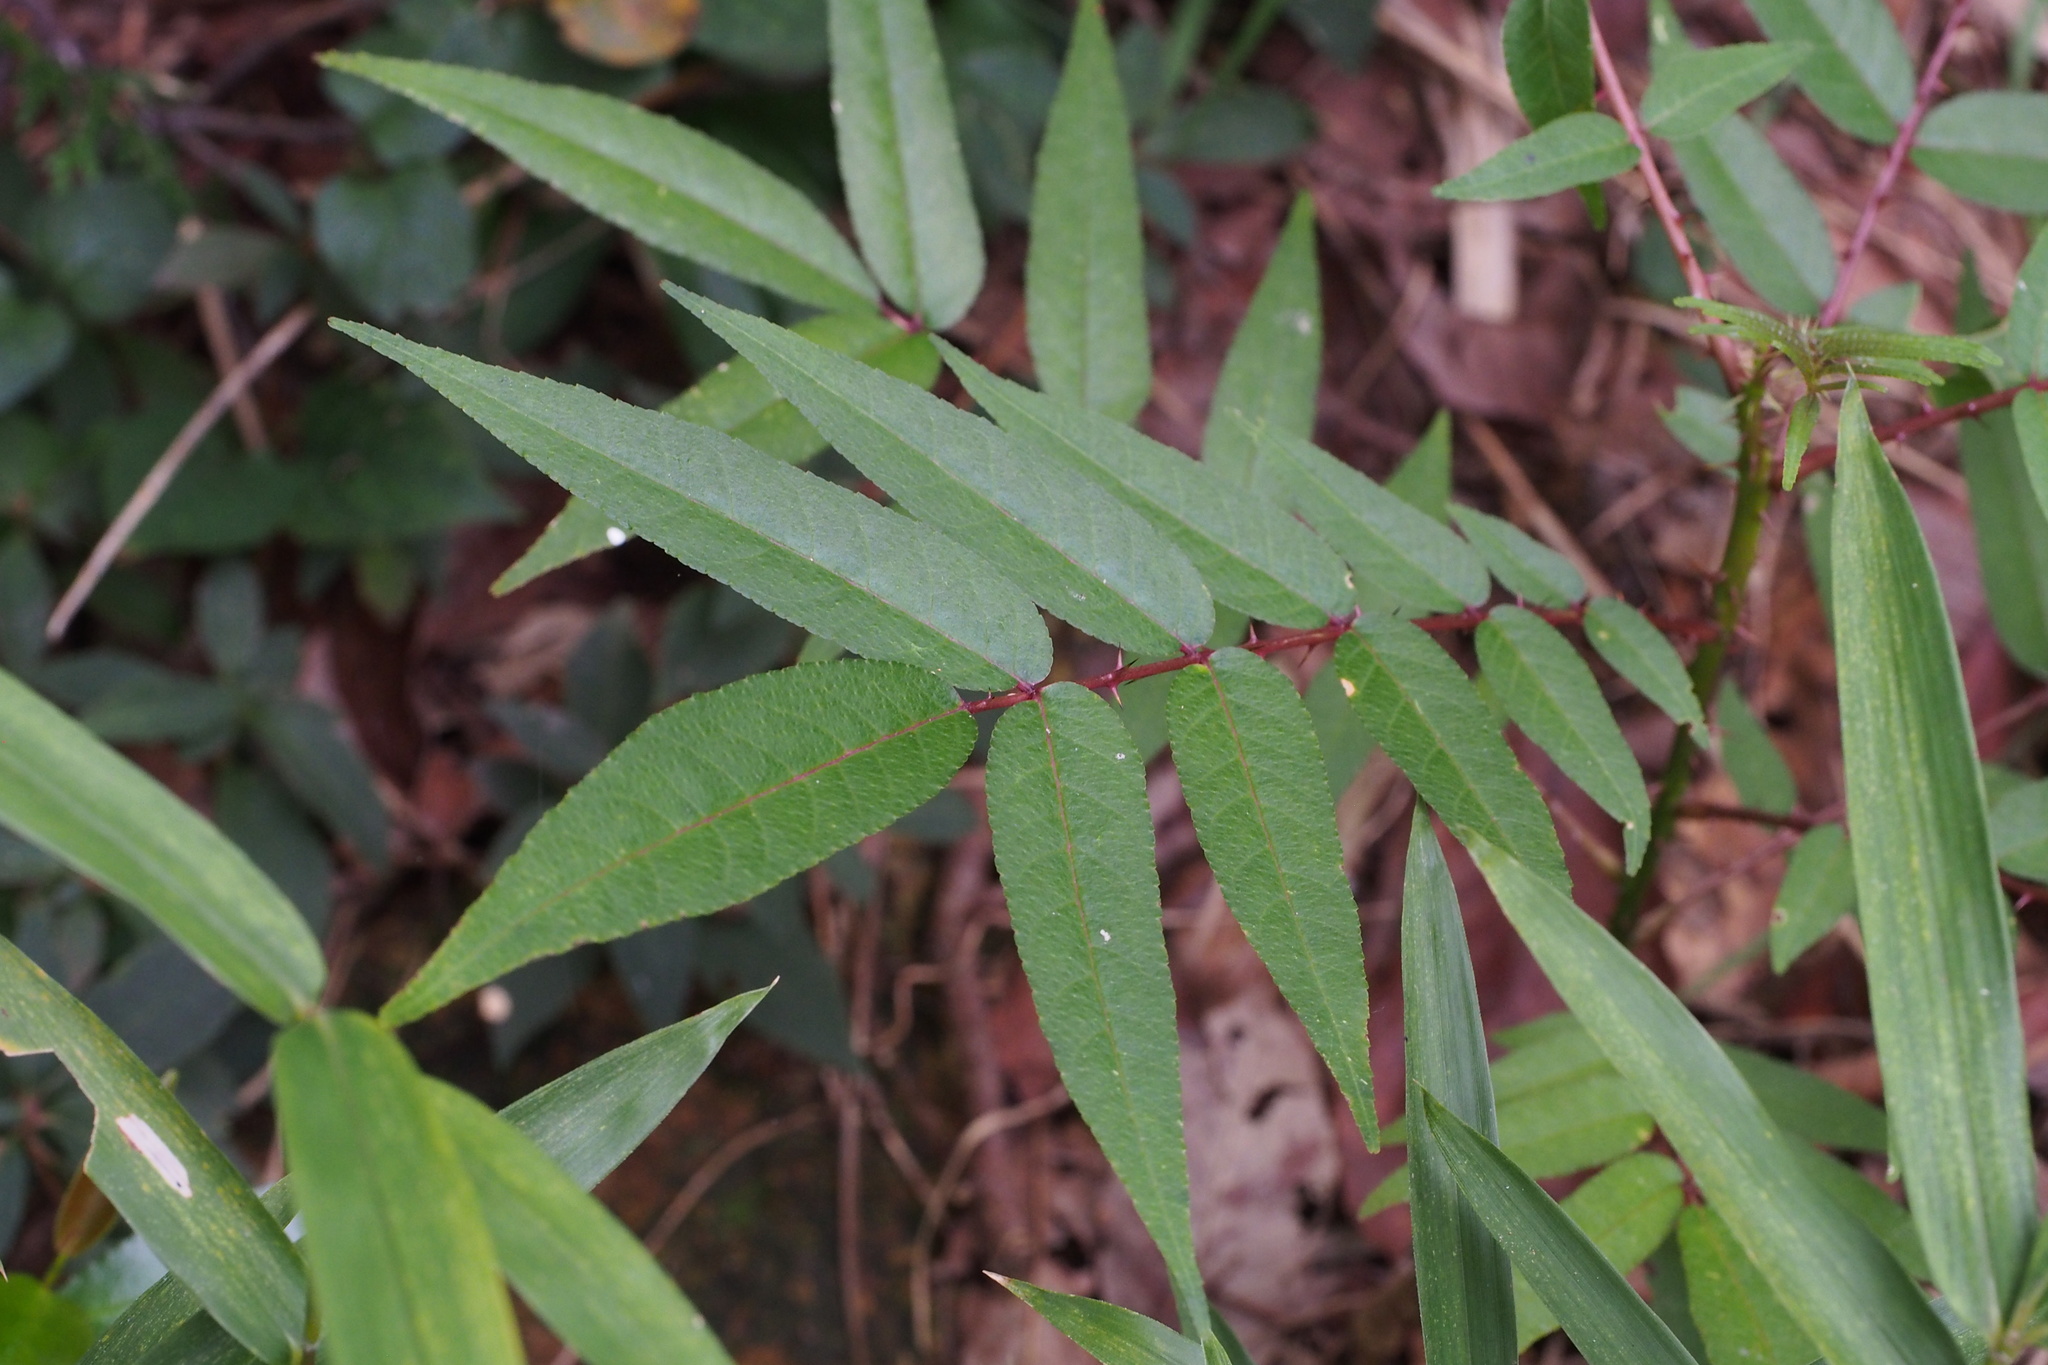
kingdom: Plantae
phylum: Tracheophyta
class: Magnoliopsida
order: Sapindales
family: Rutaceae
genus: Zanthoxylum
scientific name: Zanthoxylum fauriei
